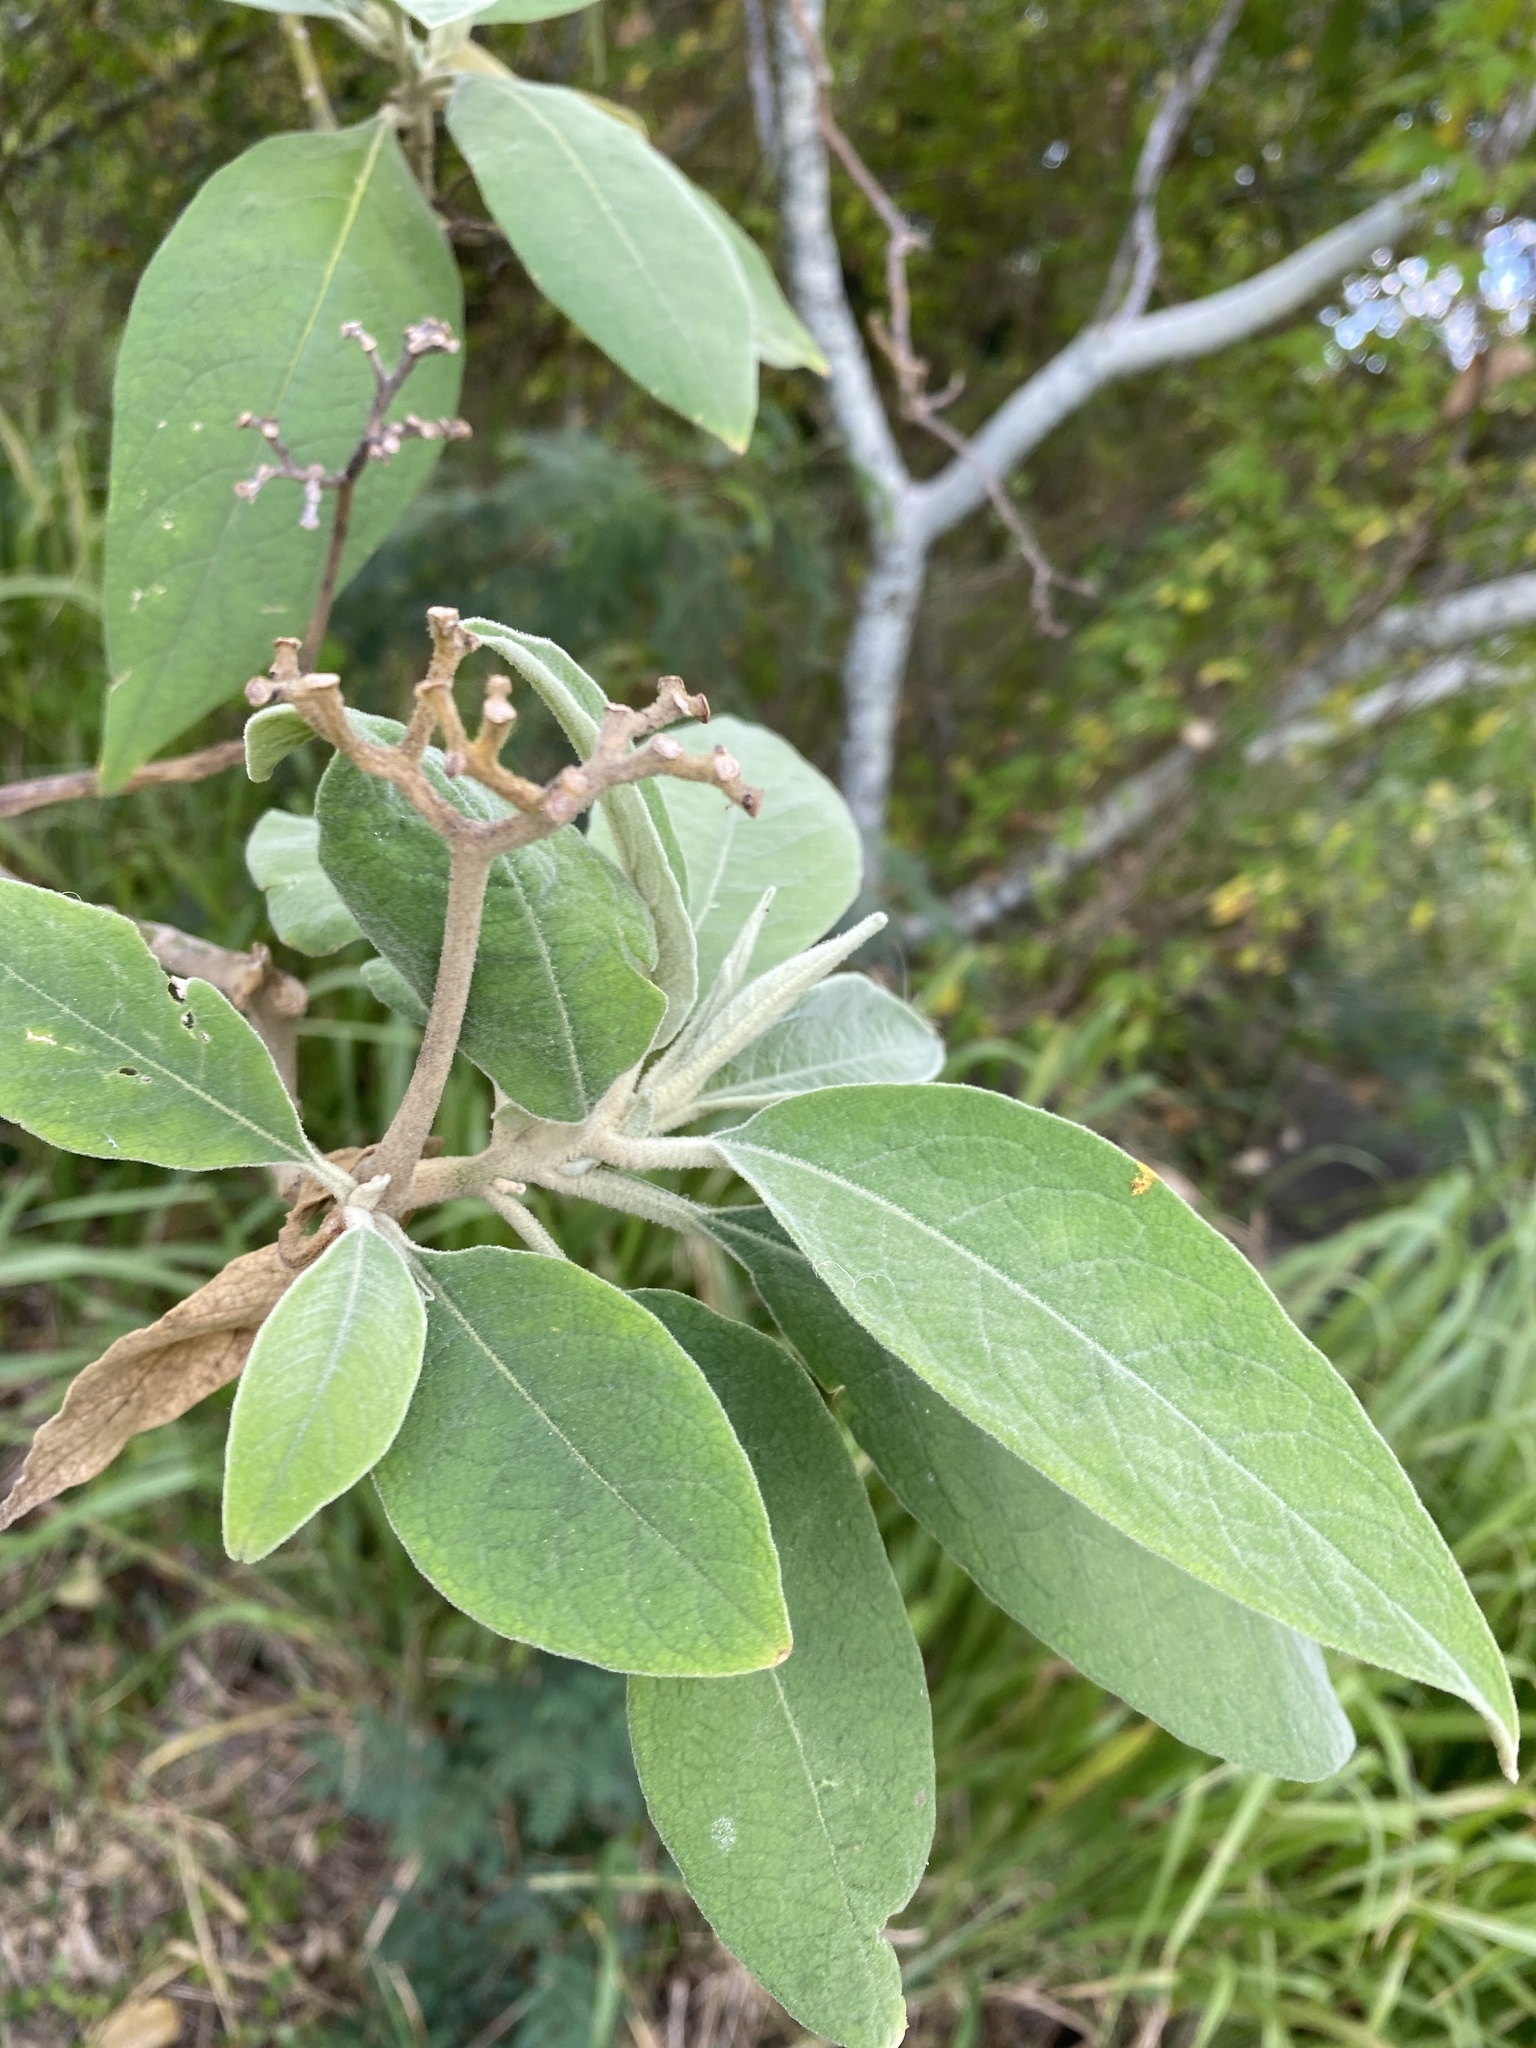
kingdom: Plantae
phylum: Tracheophyta
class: Magnoliopsida
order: Solanales
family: Solanaceae
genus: Solanum
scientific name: Solanum mauritianum
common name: Earleaf nightshade
